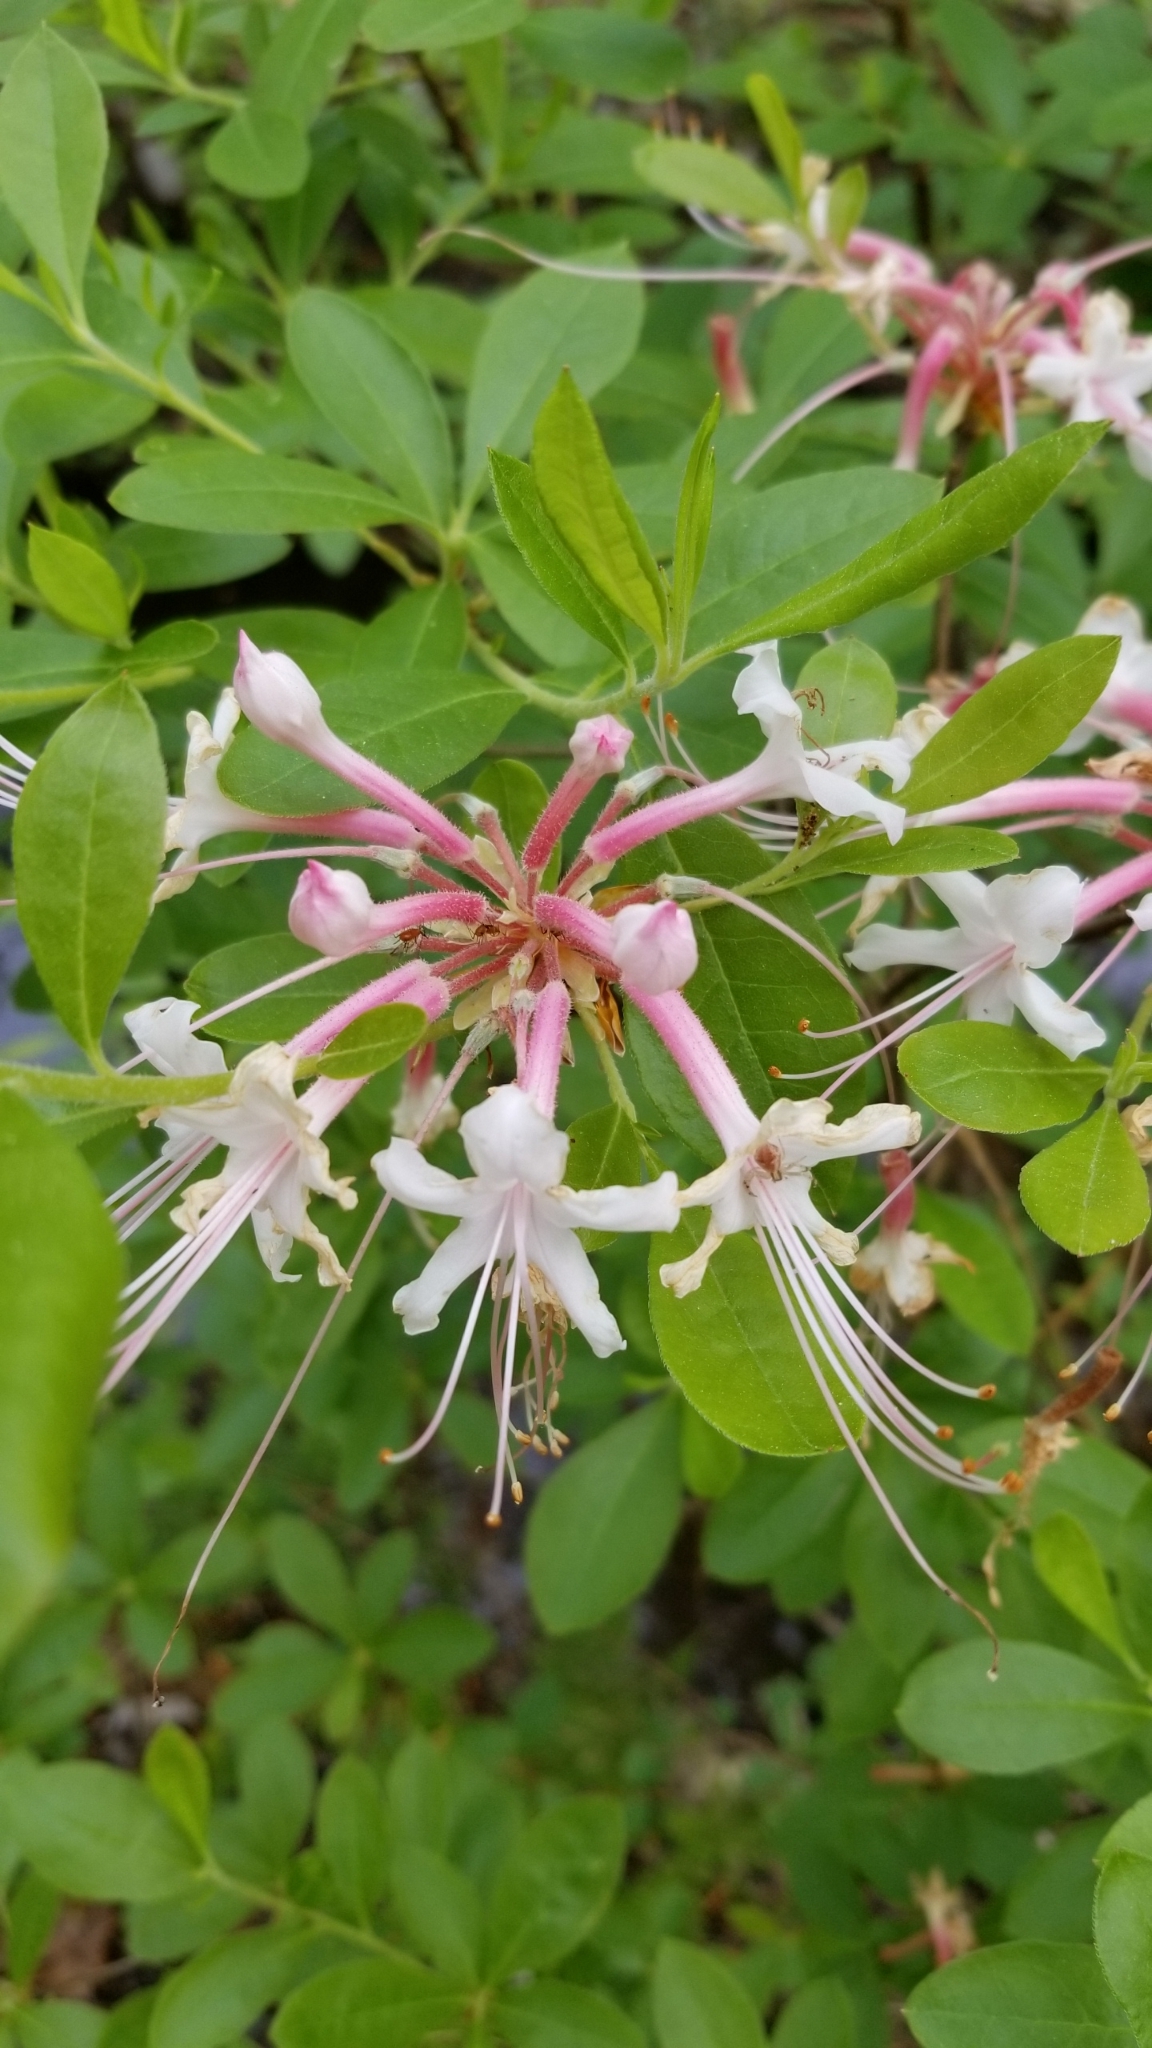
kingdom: Plantae
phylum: Tracheophyta
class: Magnoliopsida
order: Ericales
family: Ericaceae
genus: Rhododendron
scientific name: Rhododendron canescens
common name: Mountain azalea
